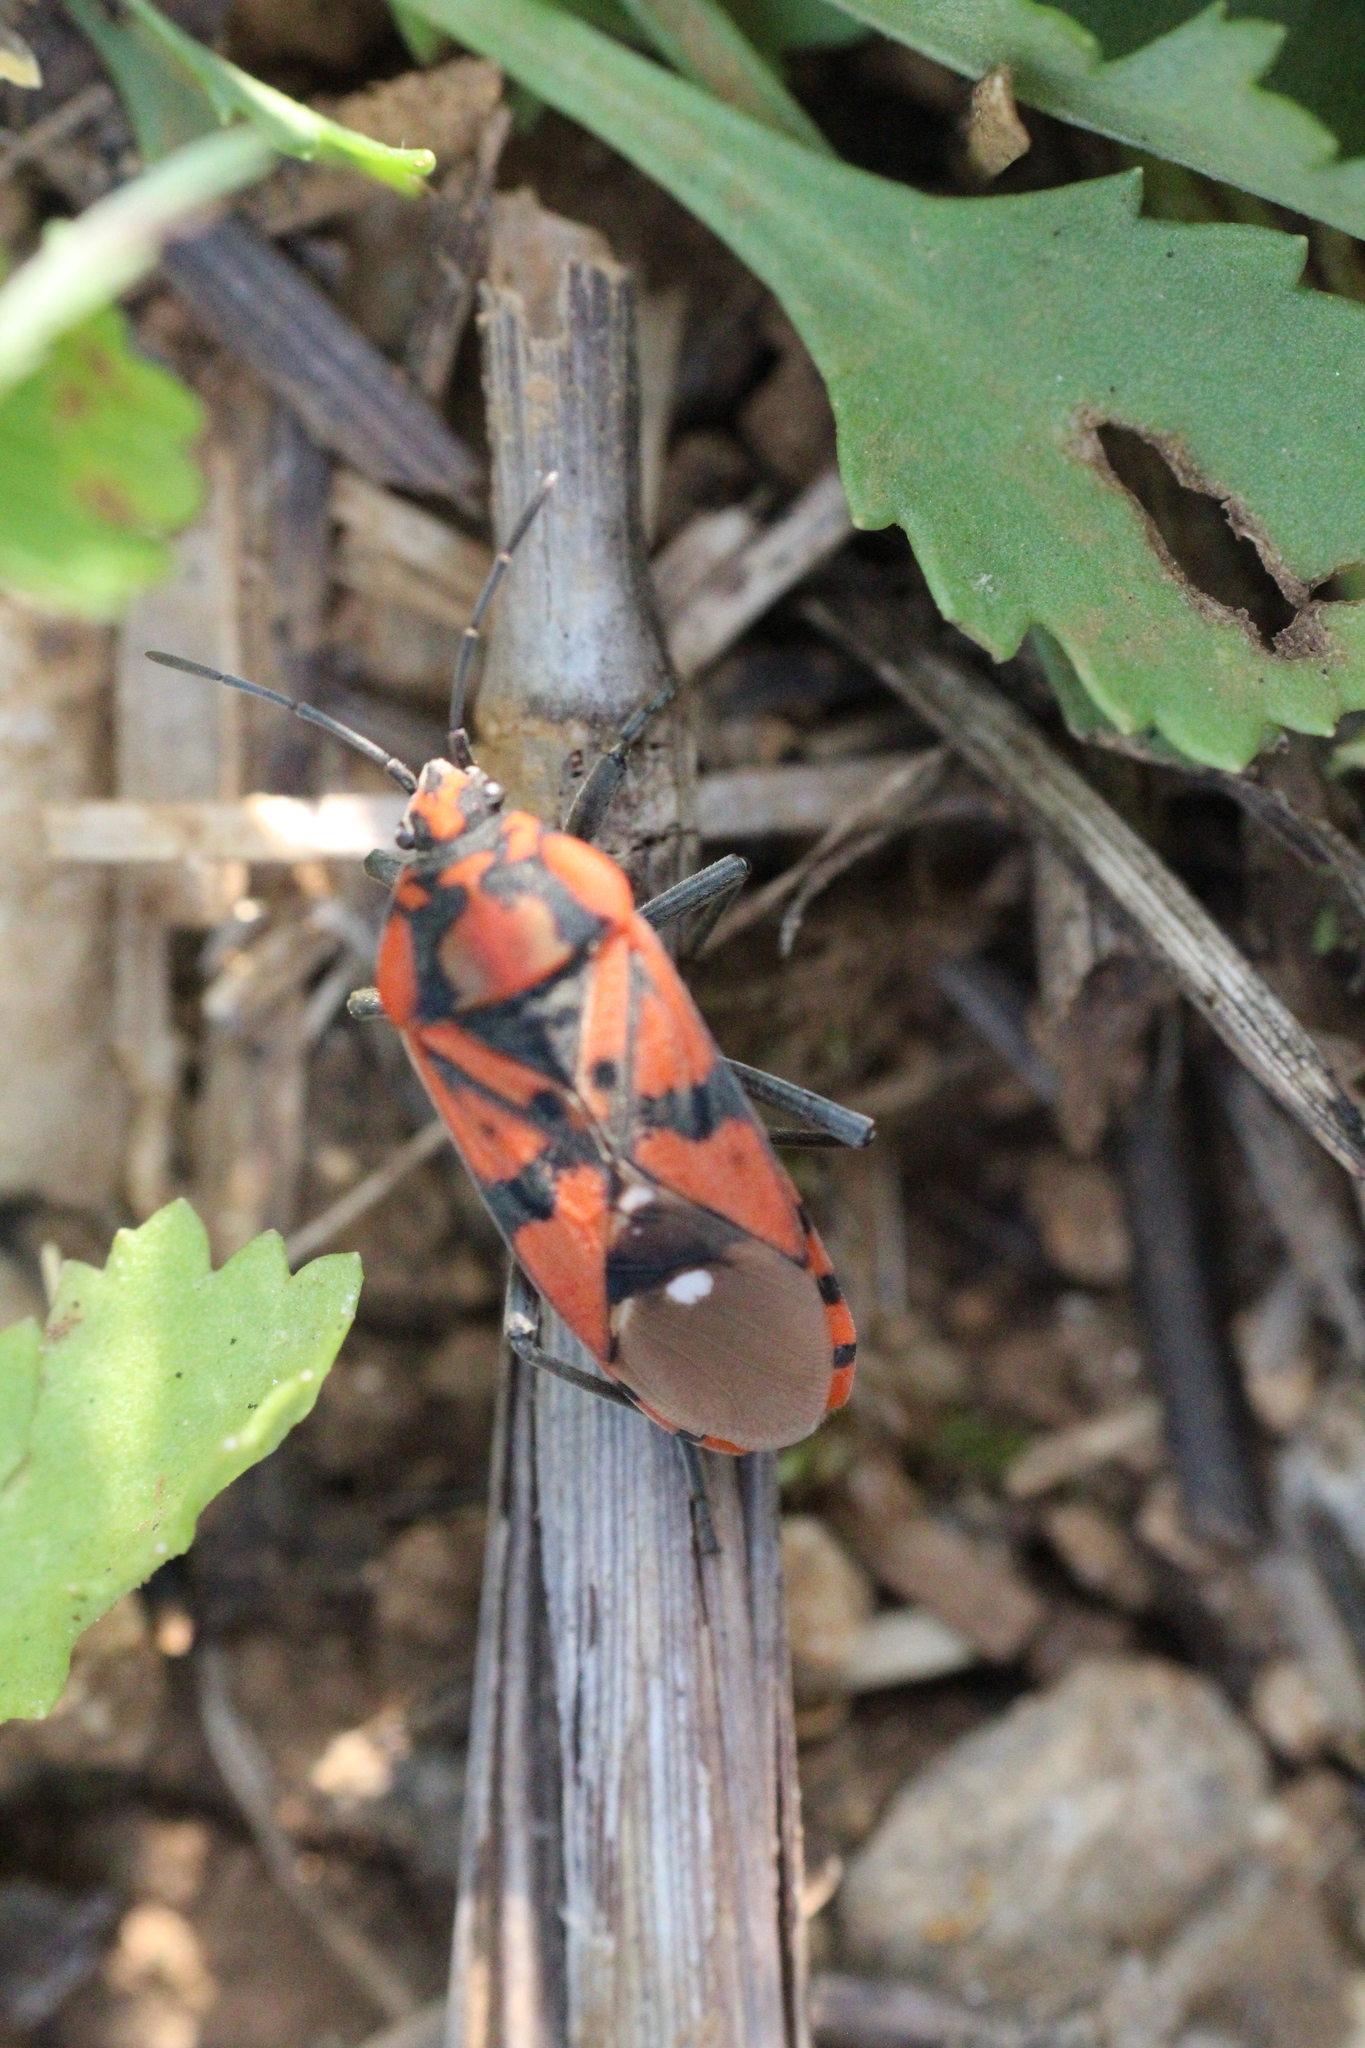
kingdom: Animalia
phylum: Arthropoda
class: Insecta
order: Hemiptera
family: Lygaeidae
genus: Spilostethus
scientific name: Spilostethus pandurus
